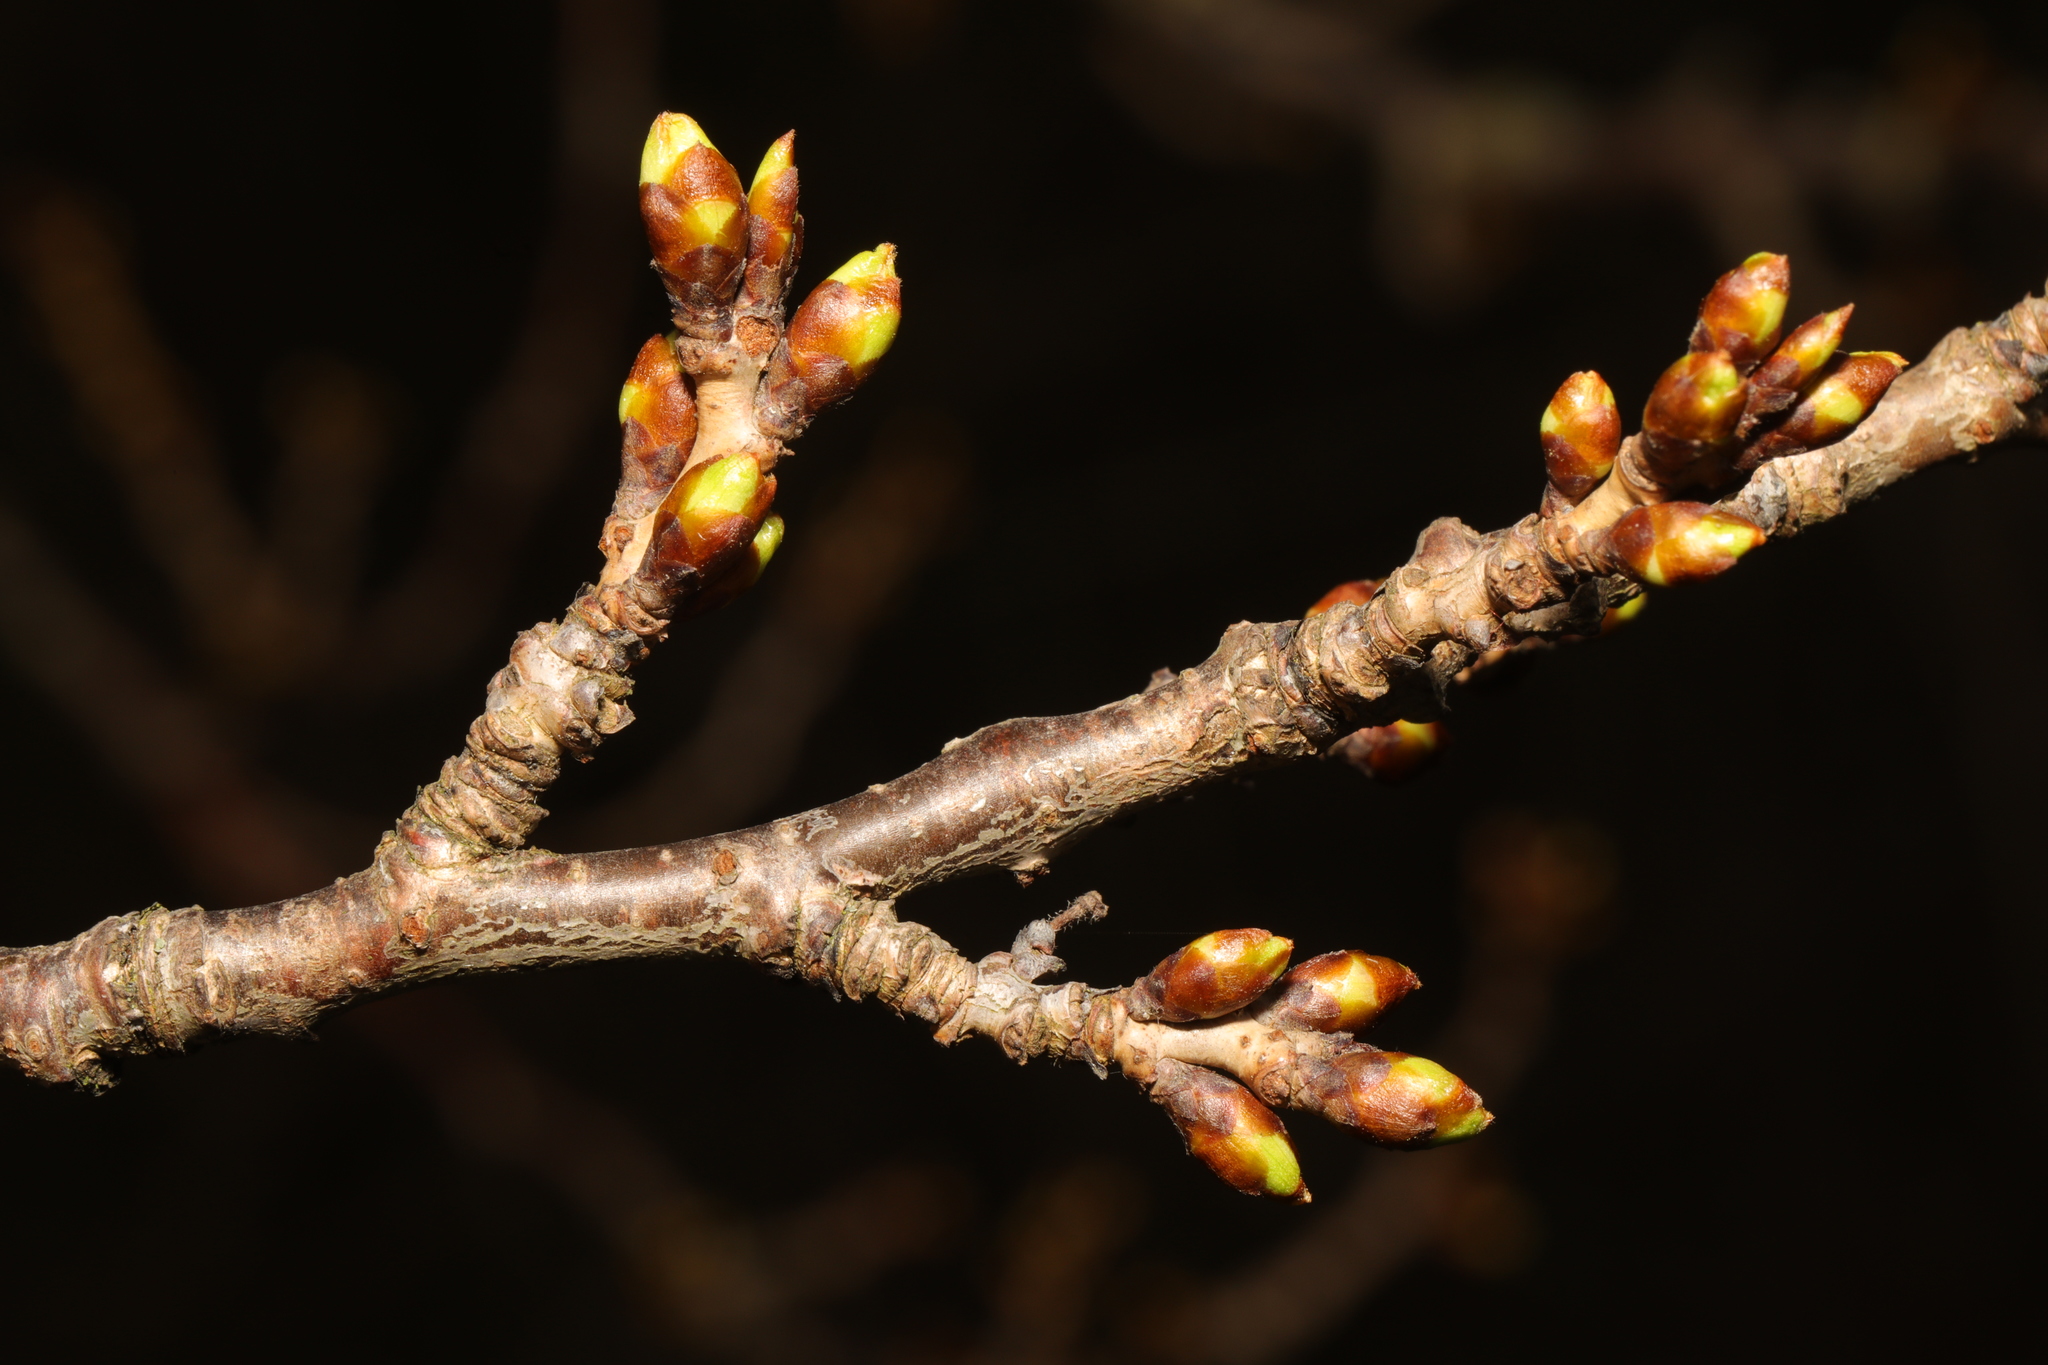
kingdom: Plantae
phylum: Tracheophyta
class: Magnoliopsida
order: Fagales
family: Fagaceae
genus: Quercus
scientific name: Quercus robur
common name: Pedunculate oak
